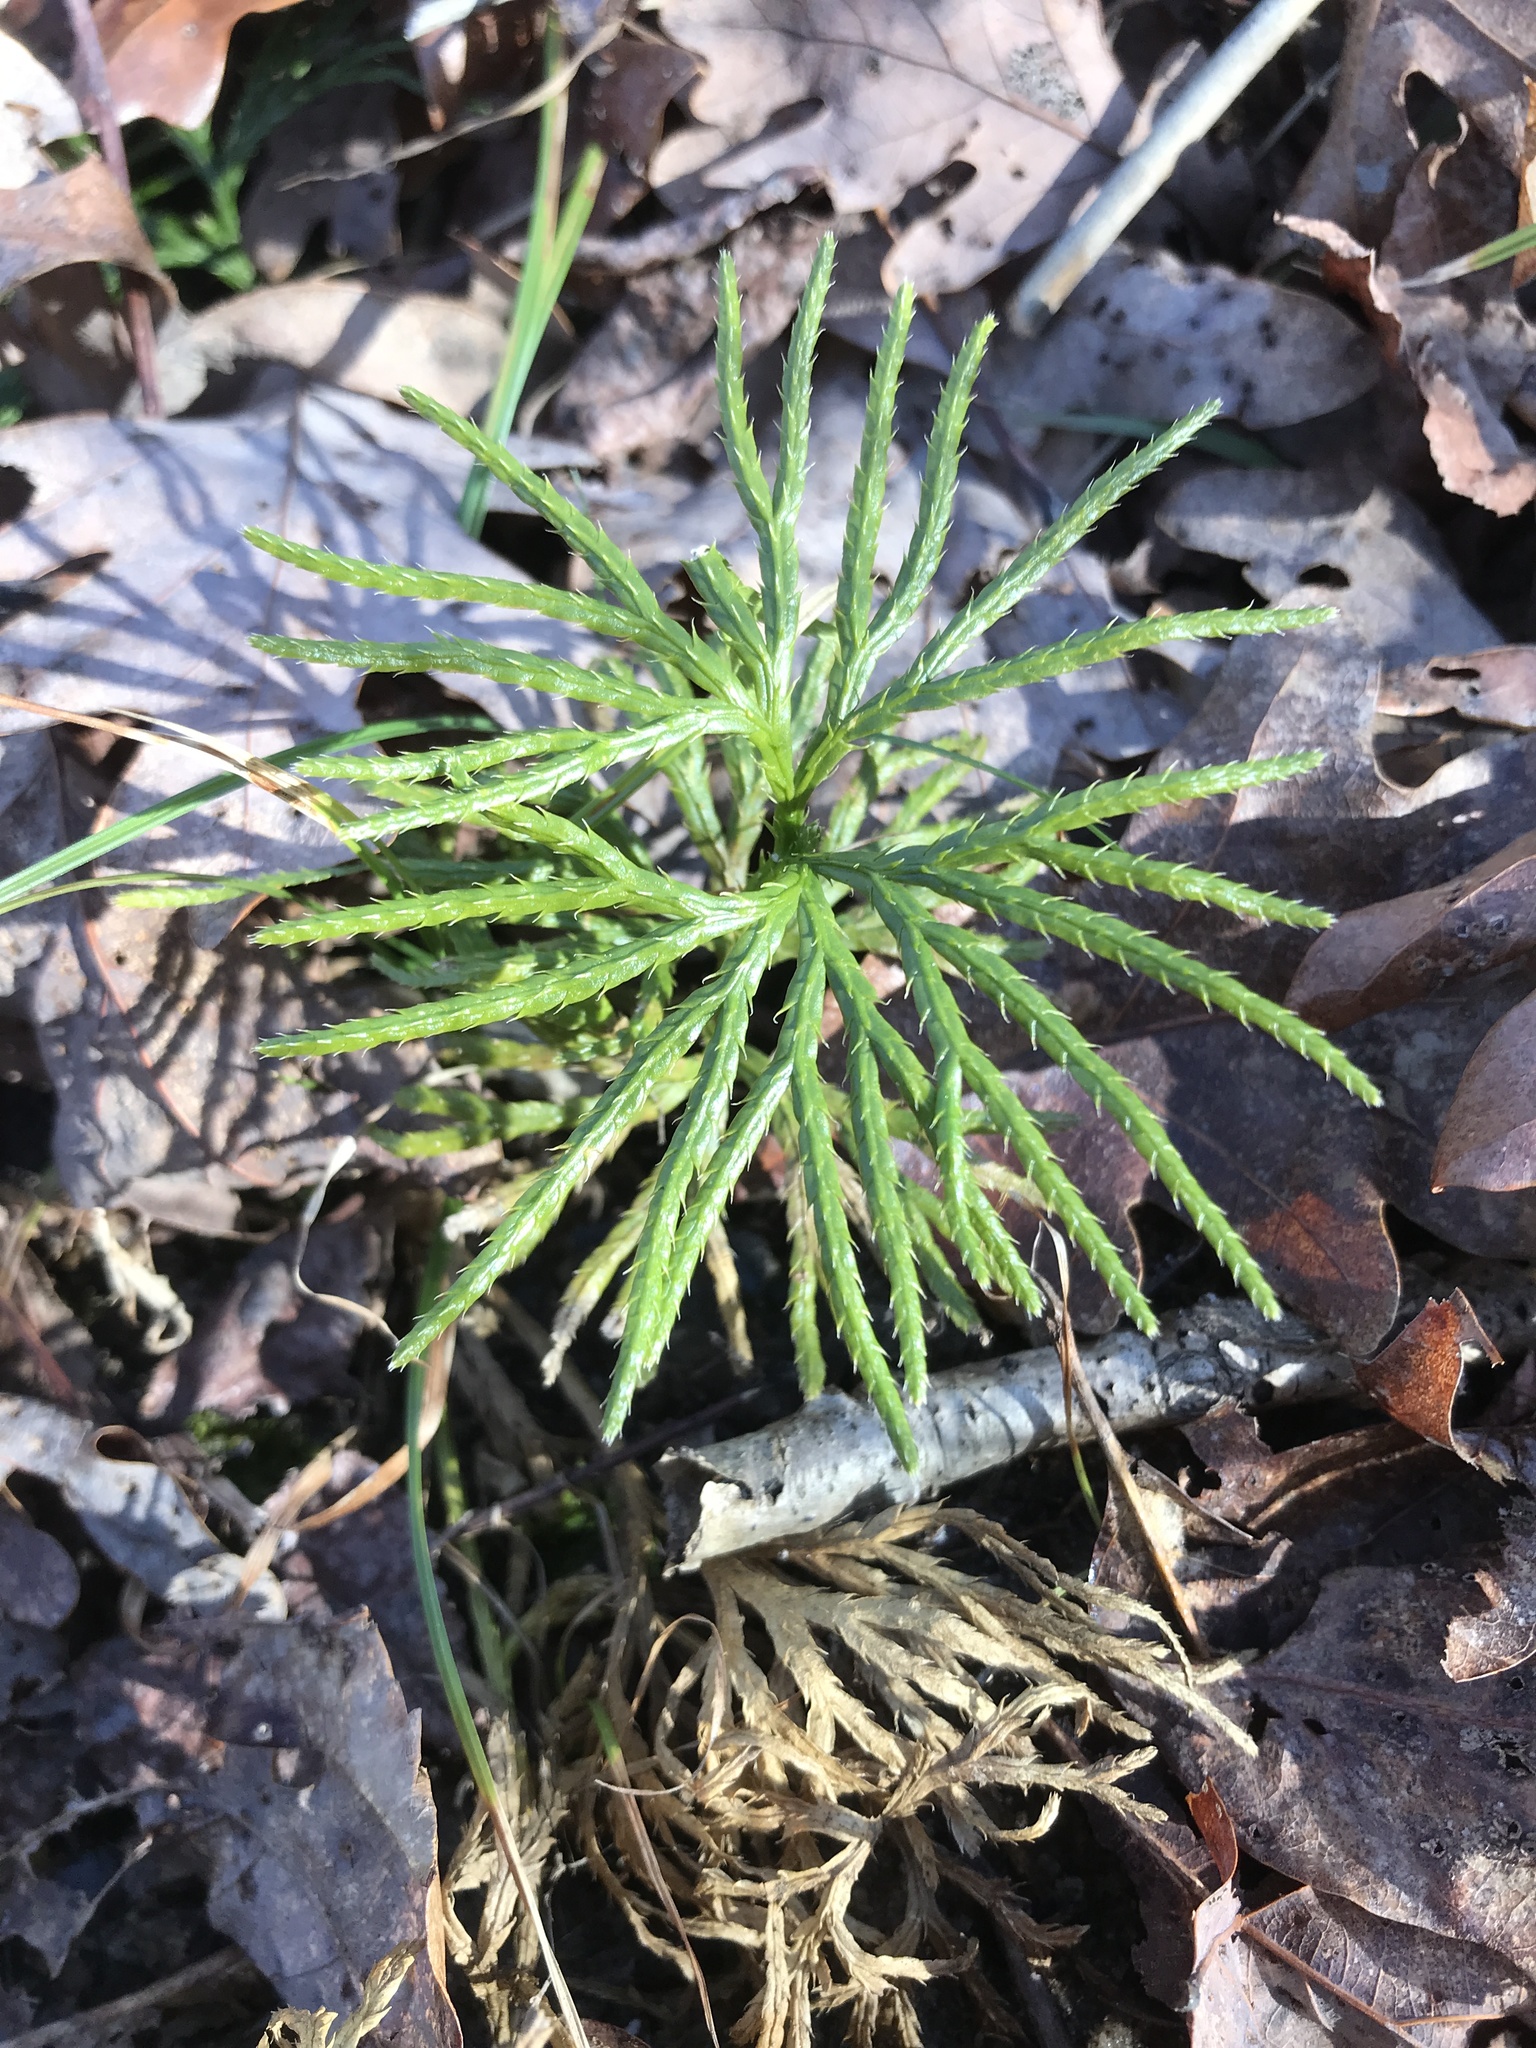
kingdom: Plantae
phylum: Tracheophyta
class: Lycopodiopsida
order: Lycopodiales
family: Lycopodiaceae
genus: Diphasiastrum
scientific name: Diphasiastrum digitatum
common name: Southern running-pine
